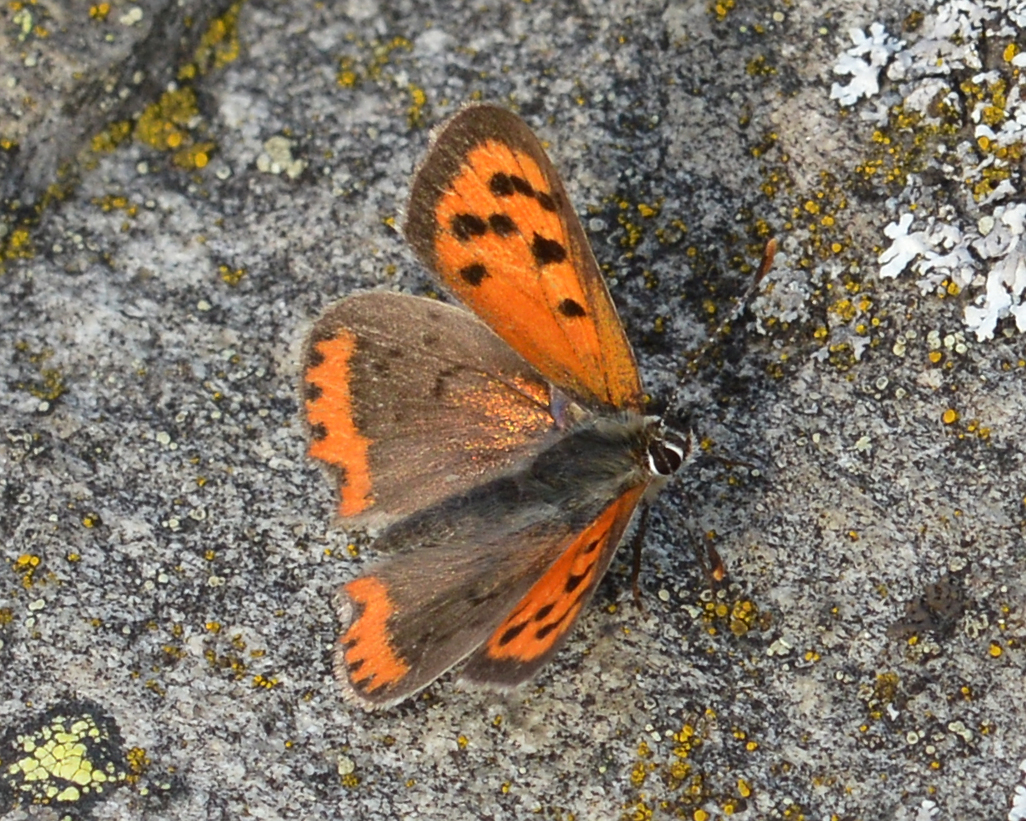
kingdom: Animalia
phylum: Arthropoda
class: Insecta
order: Lepidoptera
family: Lycaenidae
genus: Lycaena
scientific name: Lycaena phlaeas
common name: Small copper
